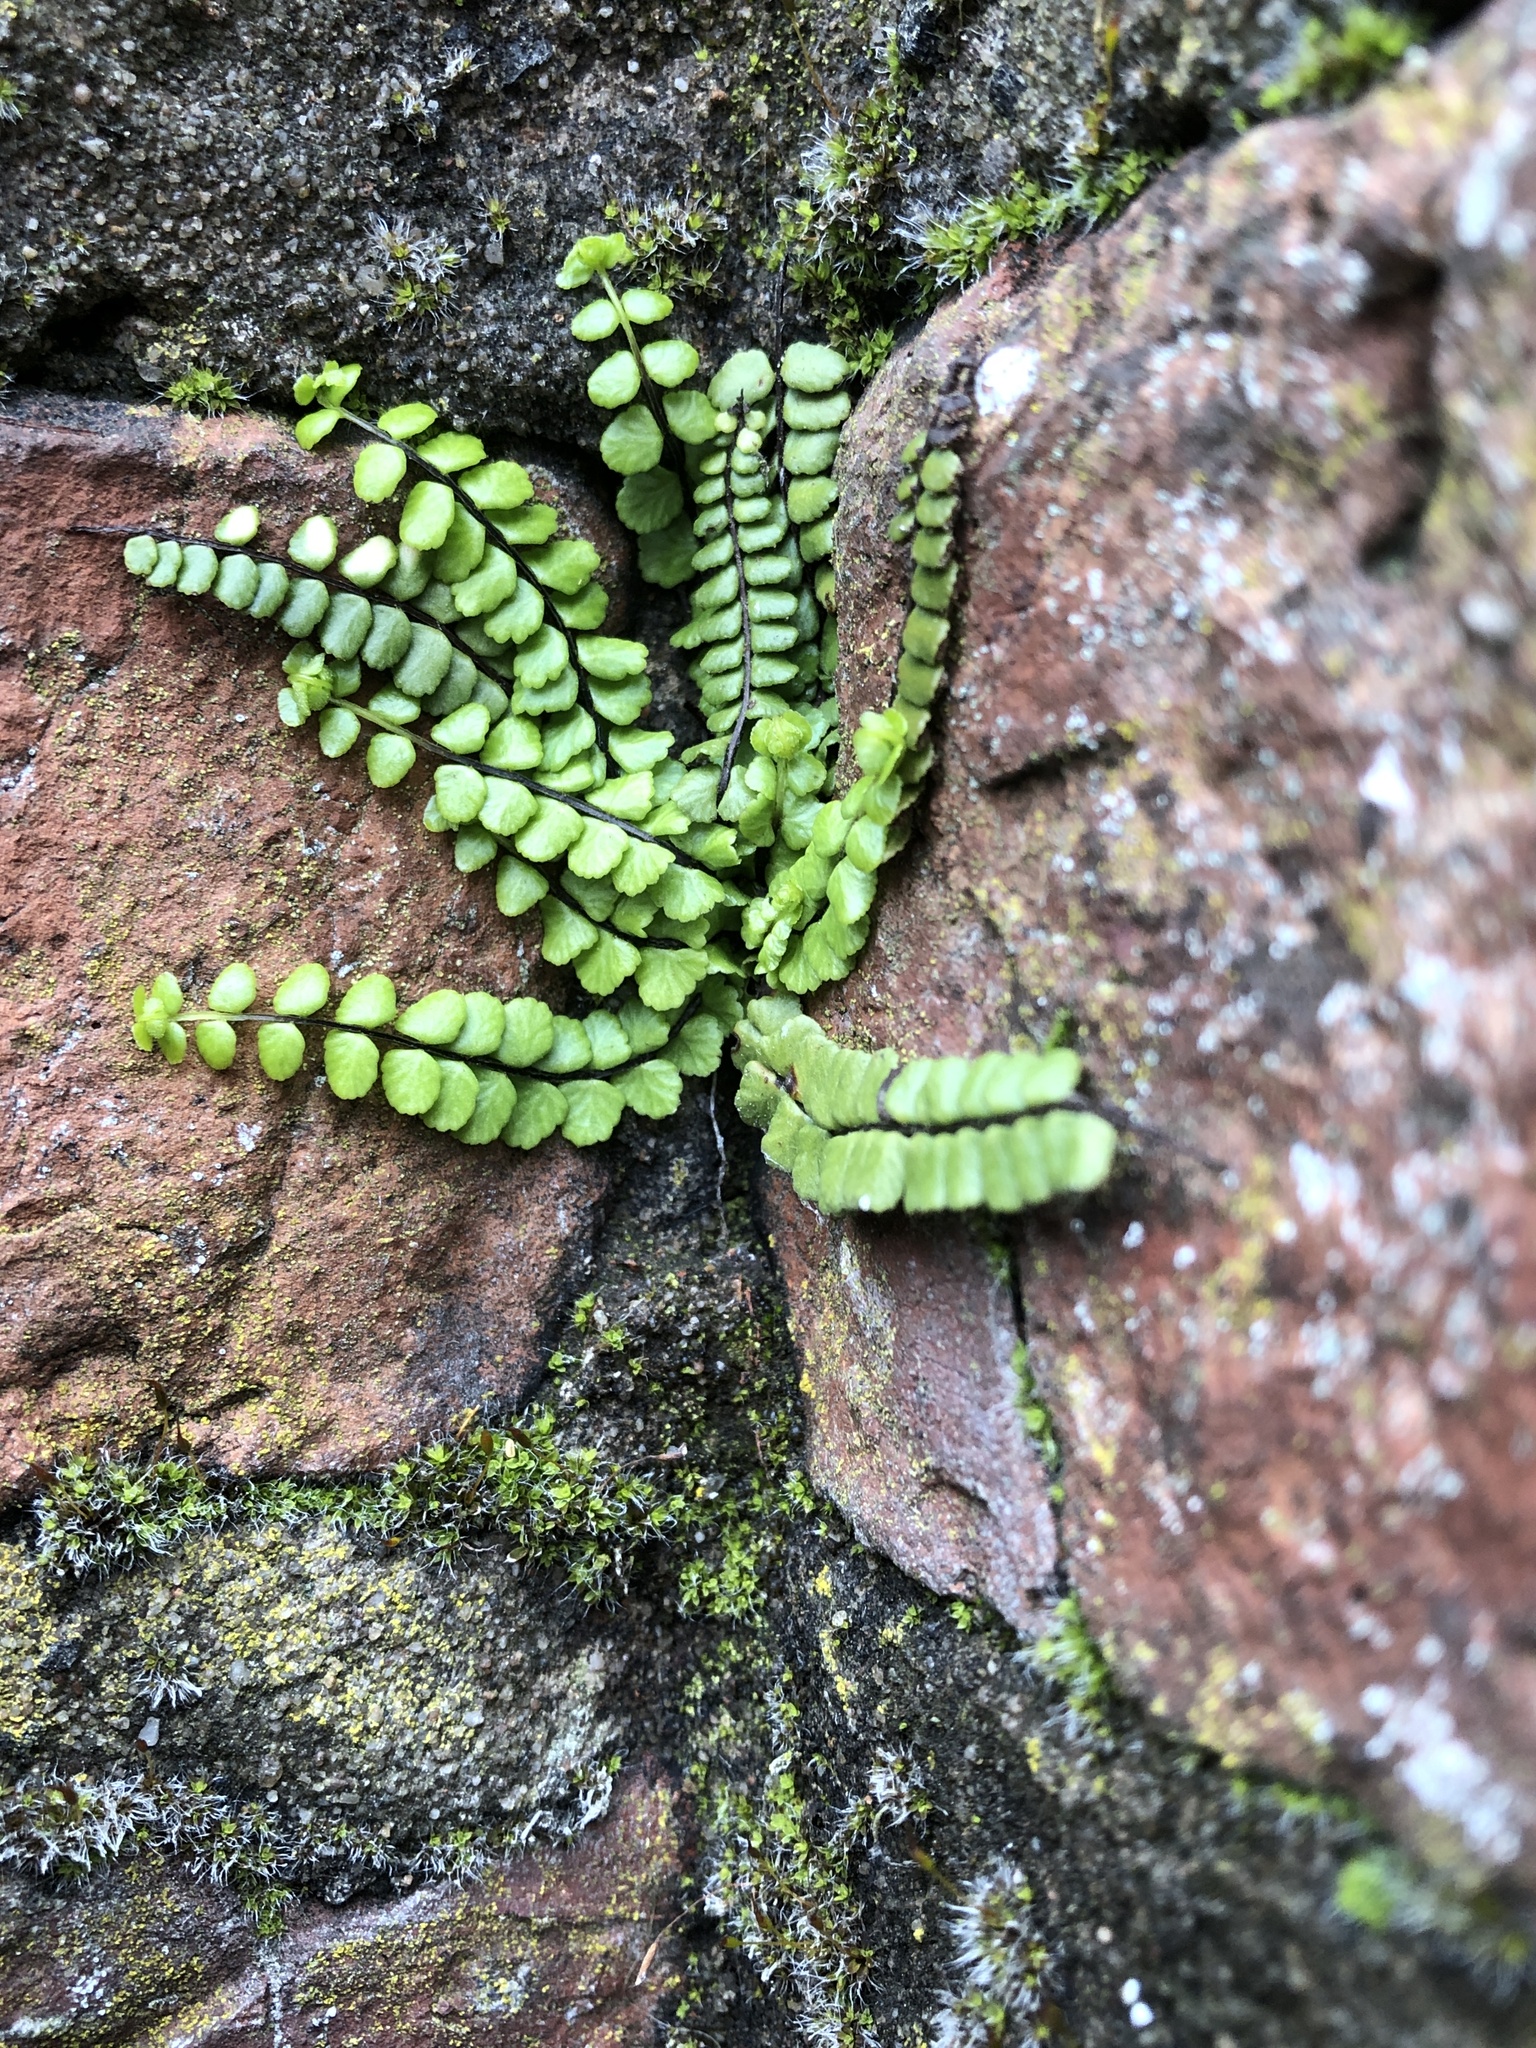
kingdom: Plantae
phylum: Tracheophyta
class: Polypodiopsida
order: Polypodiales
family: Aspleniaceae
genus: Asplenium
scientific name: Asplenium trichomanes
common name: Maidenhair spleenwort
